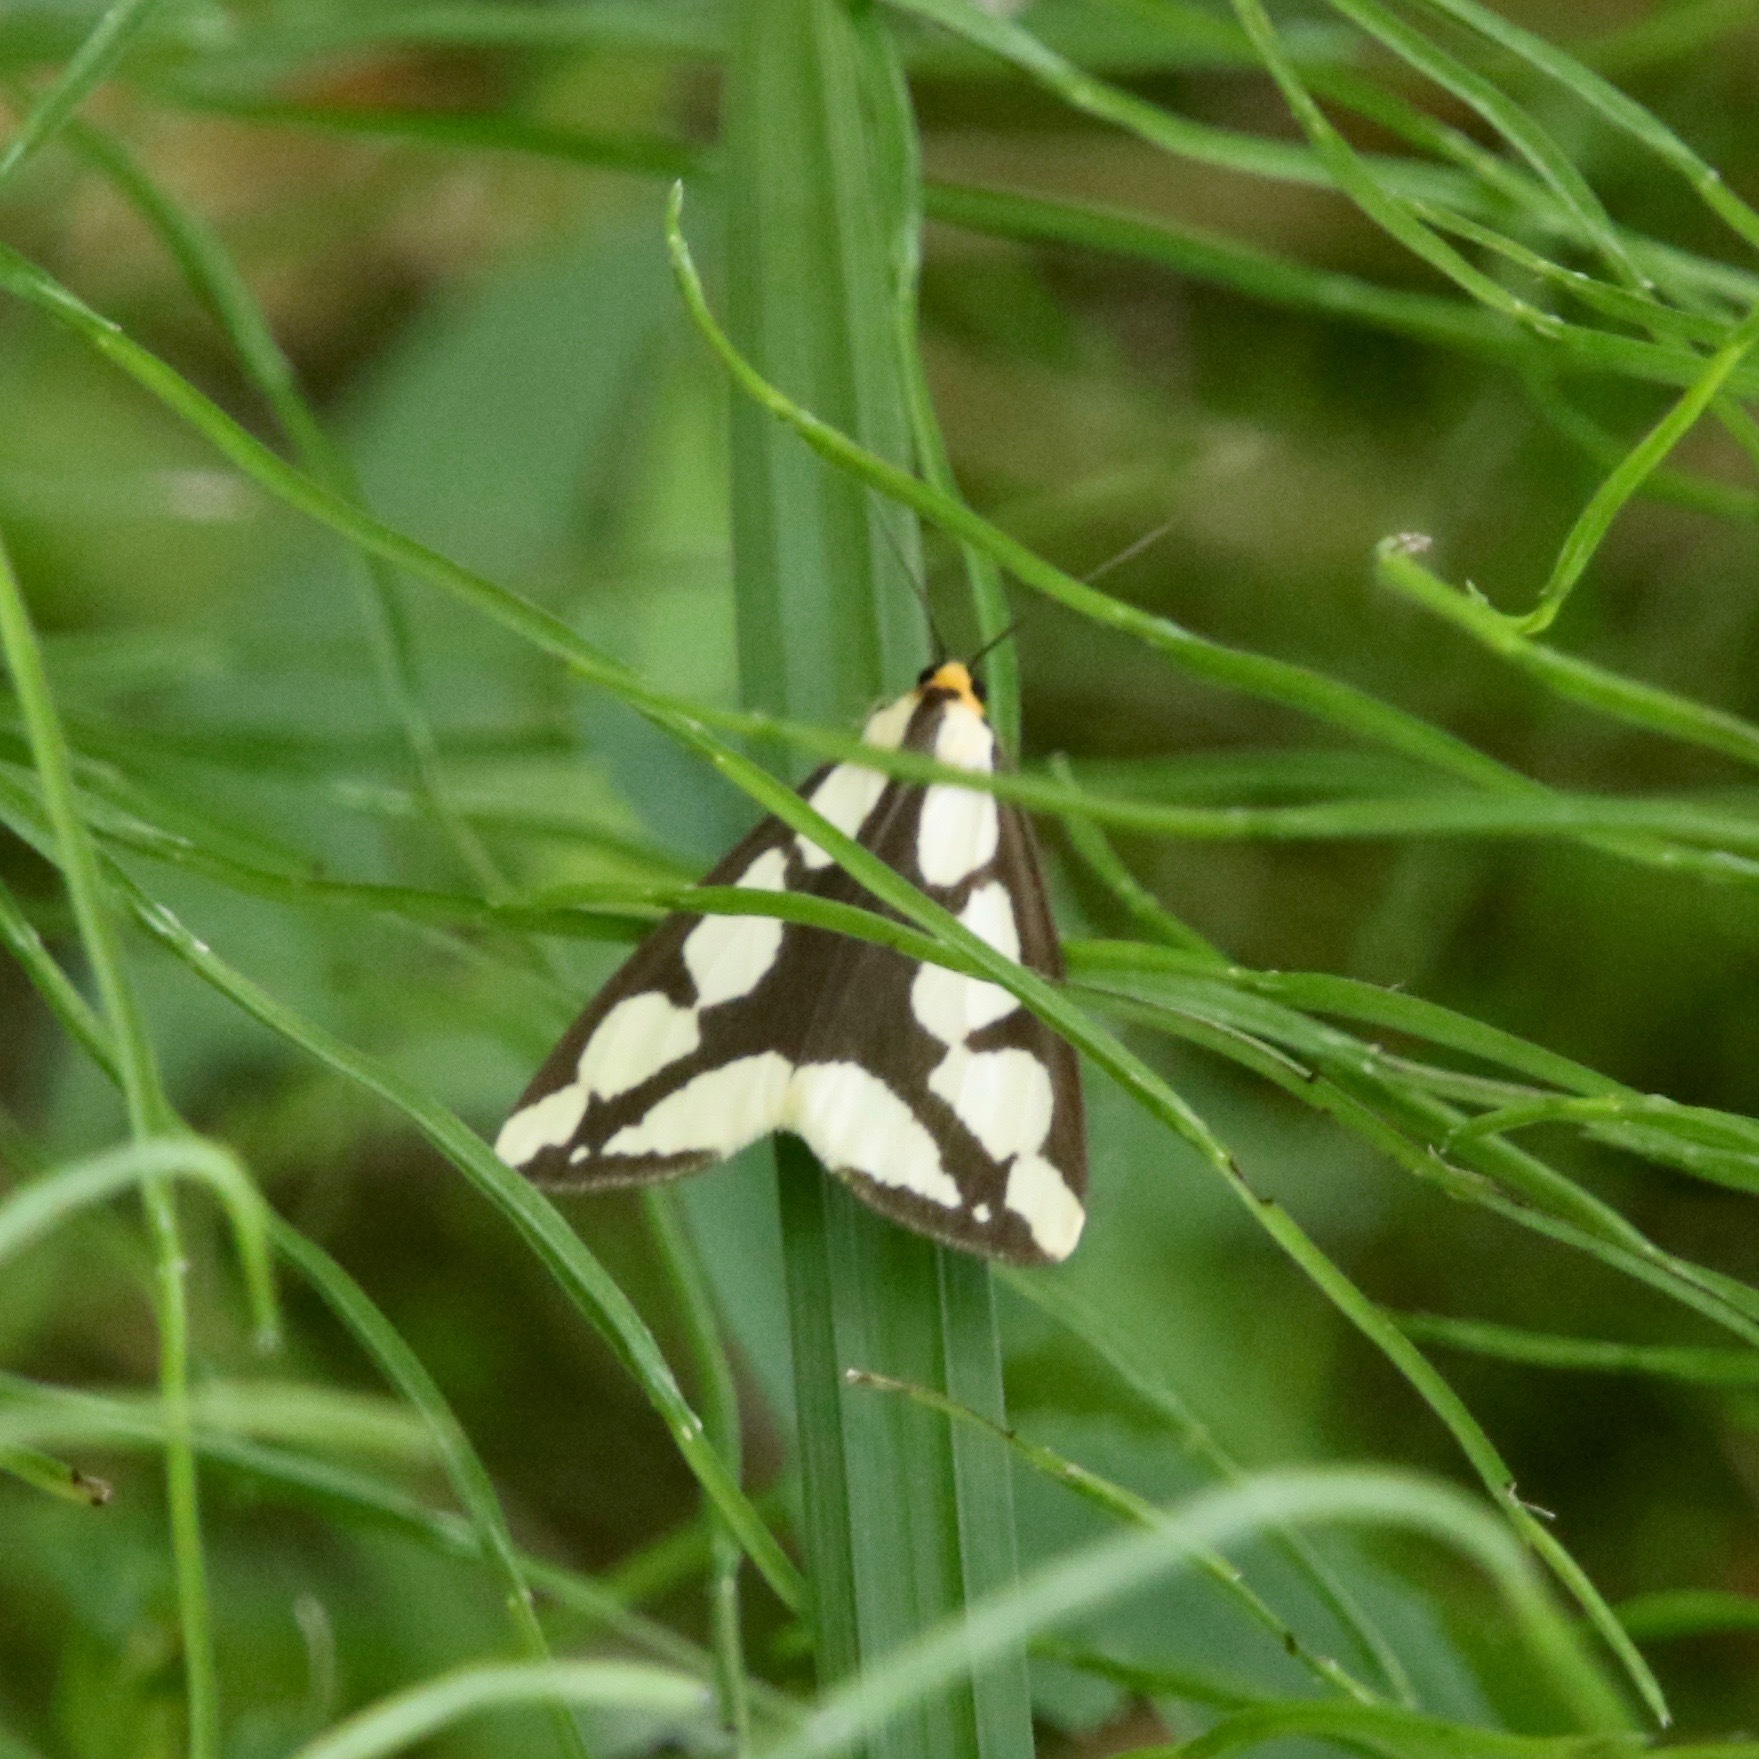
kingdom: Animalia
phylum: Arthropoda
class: Insecta
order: Lepidoptera
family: Erebidae
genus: Haploa
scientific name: Haploa lecontei
